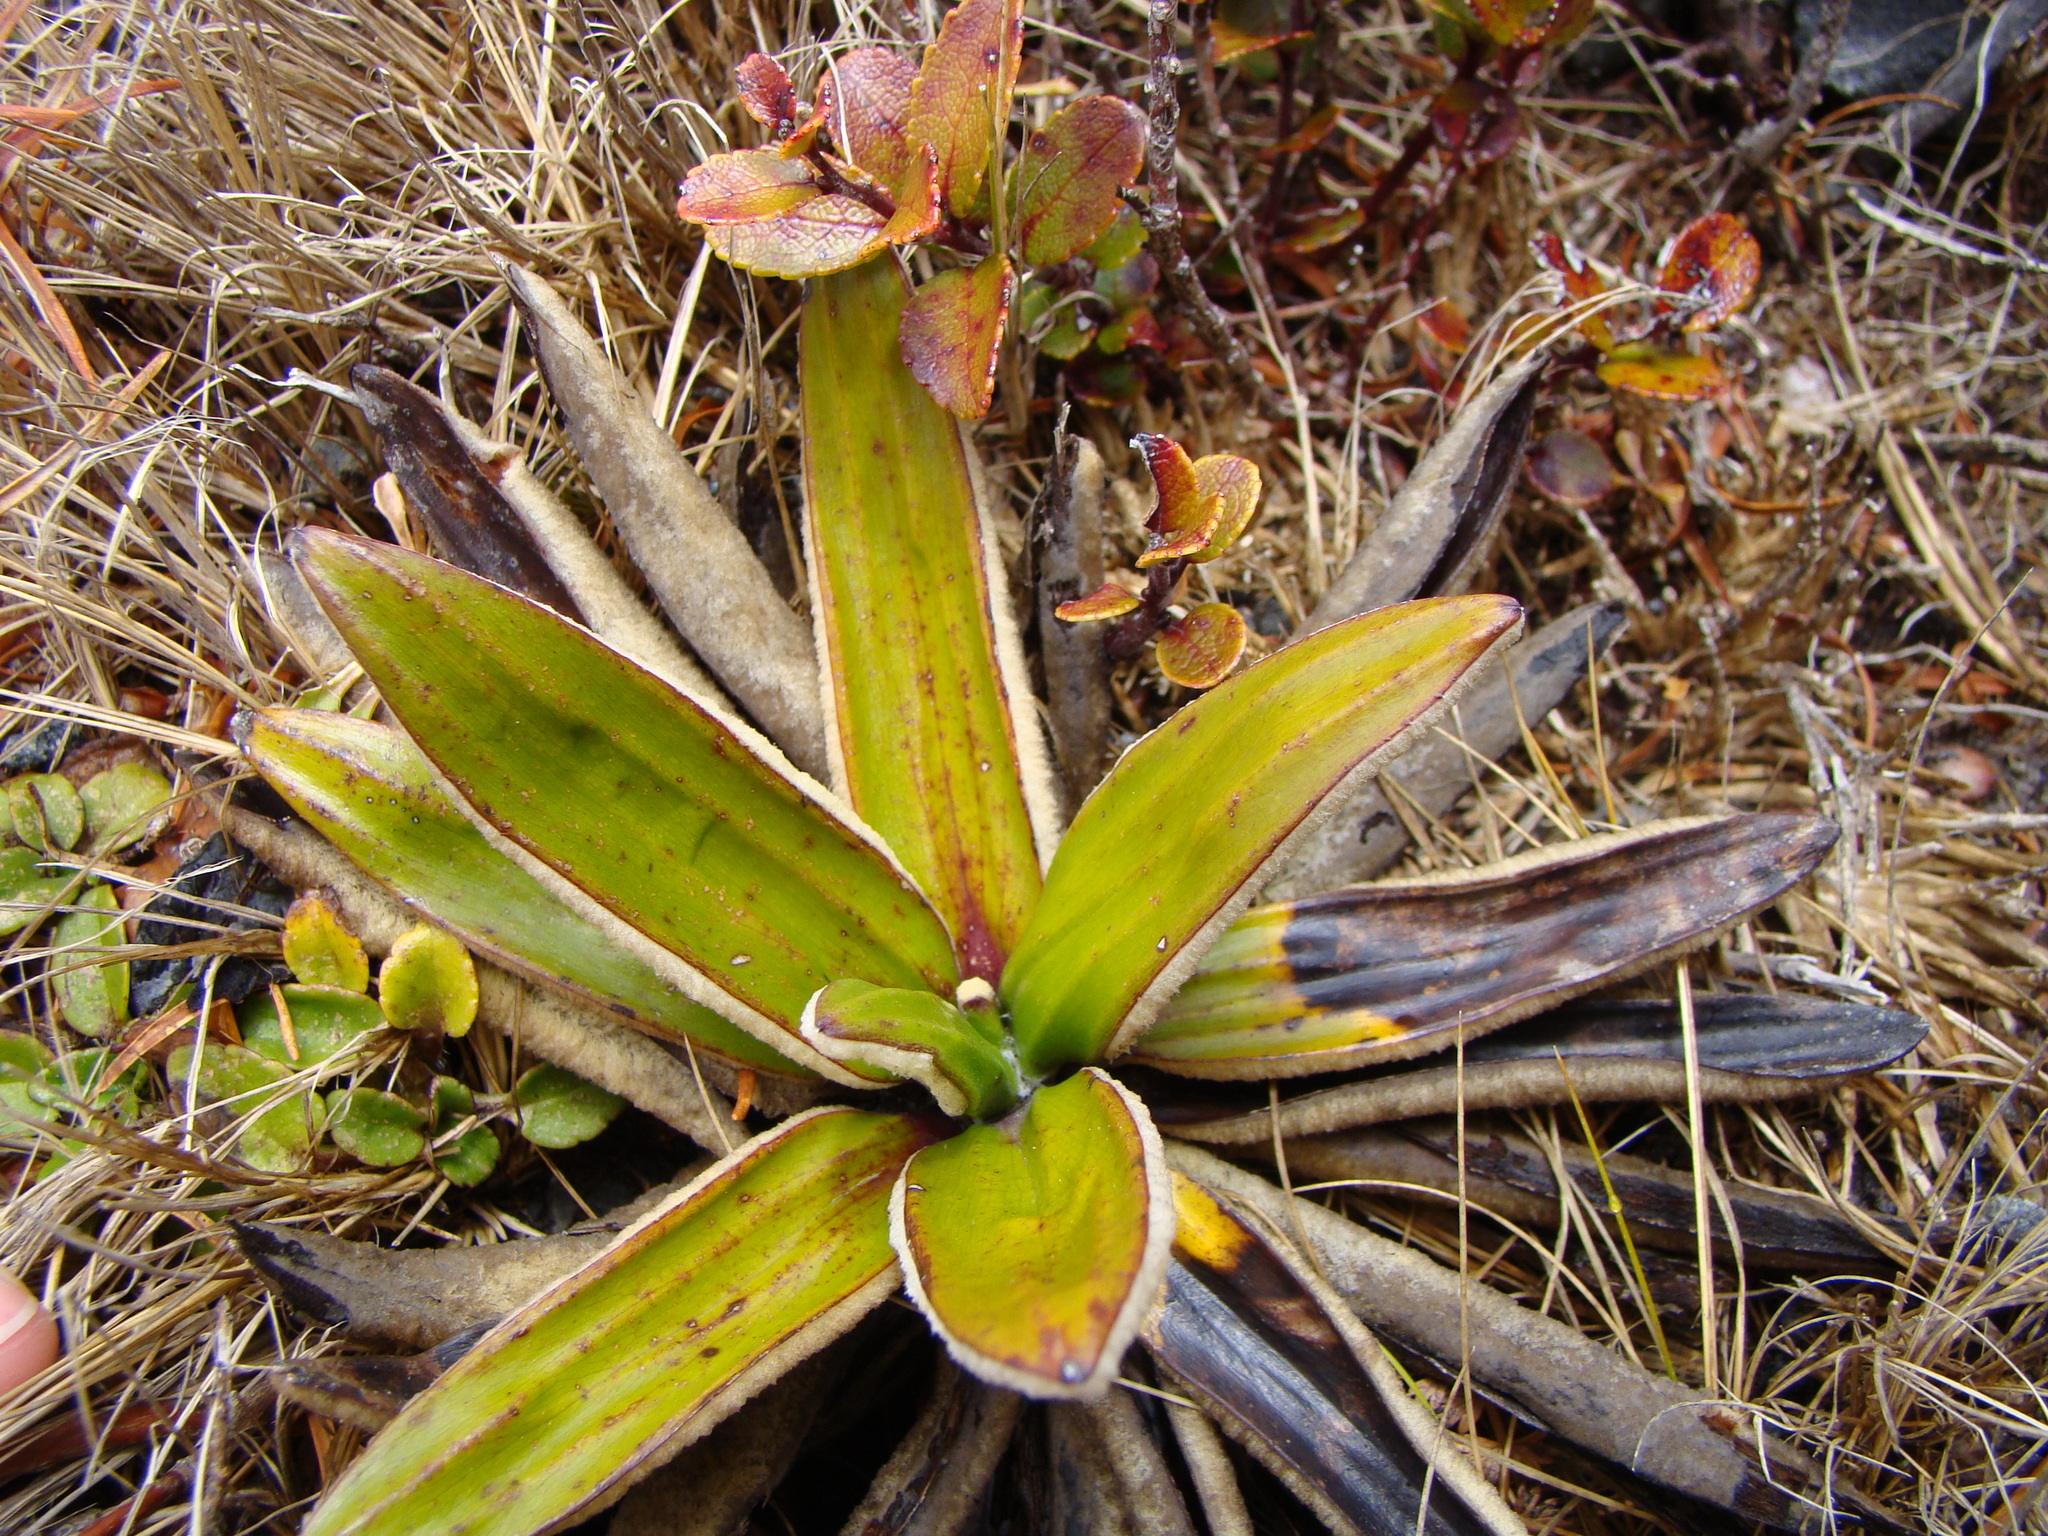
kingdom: Plantae
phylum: Tracheophyta
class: Magnoliopsida
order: Asterales
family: Asteraceae
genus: Celmisia
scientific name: Celmisia spectabilis
